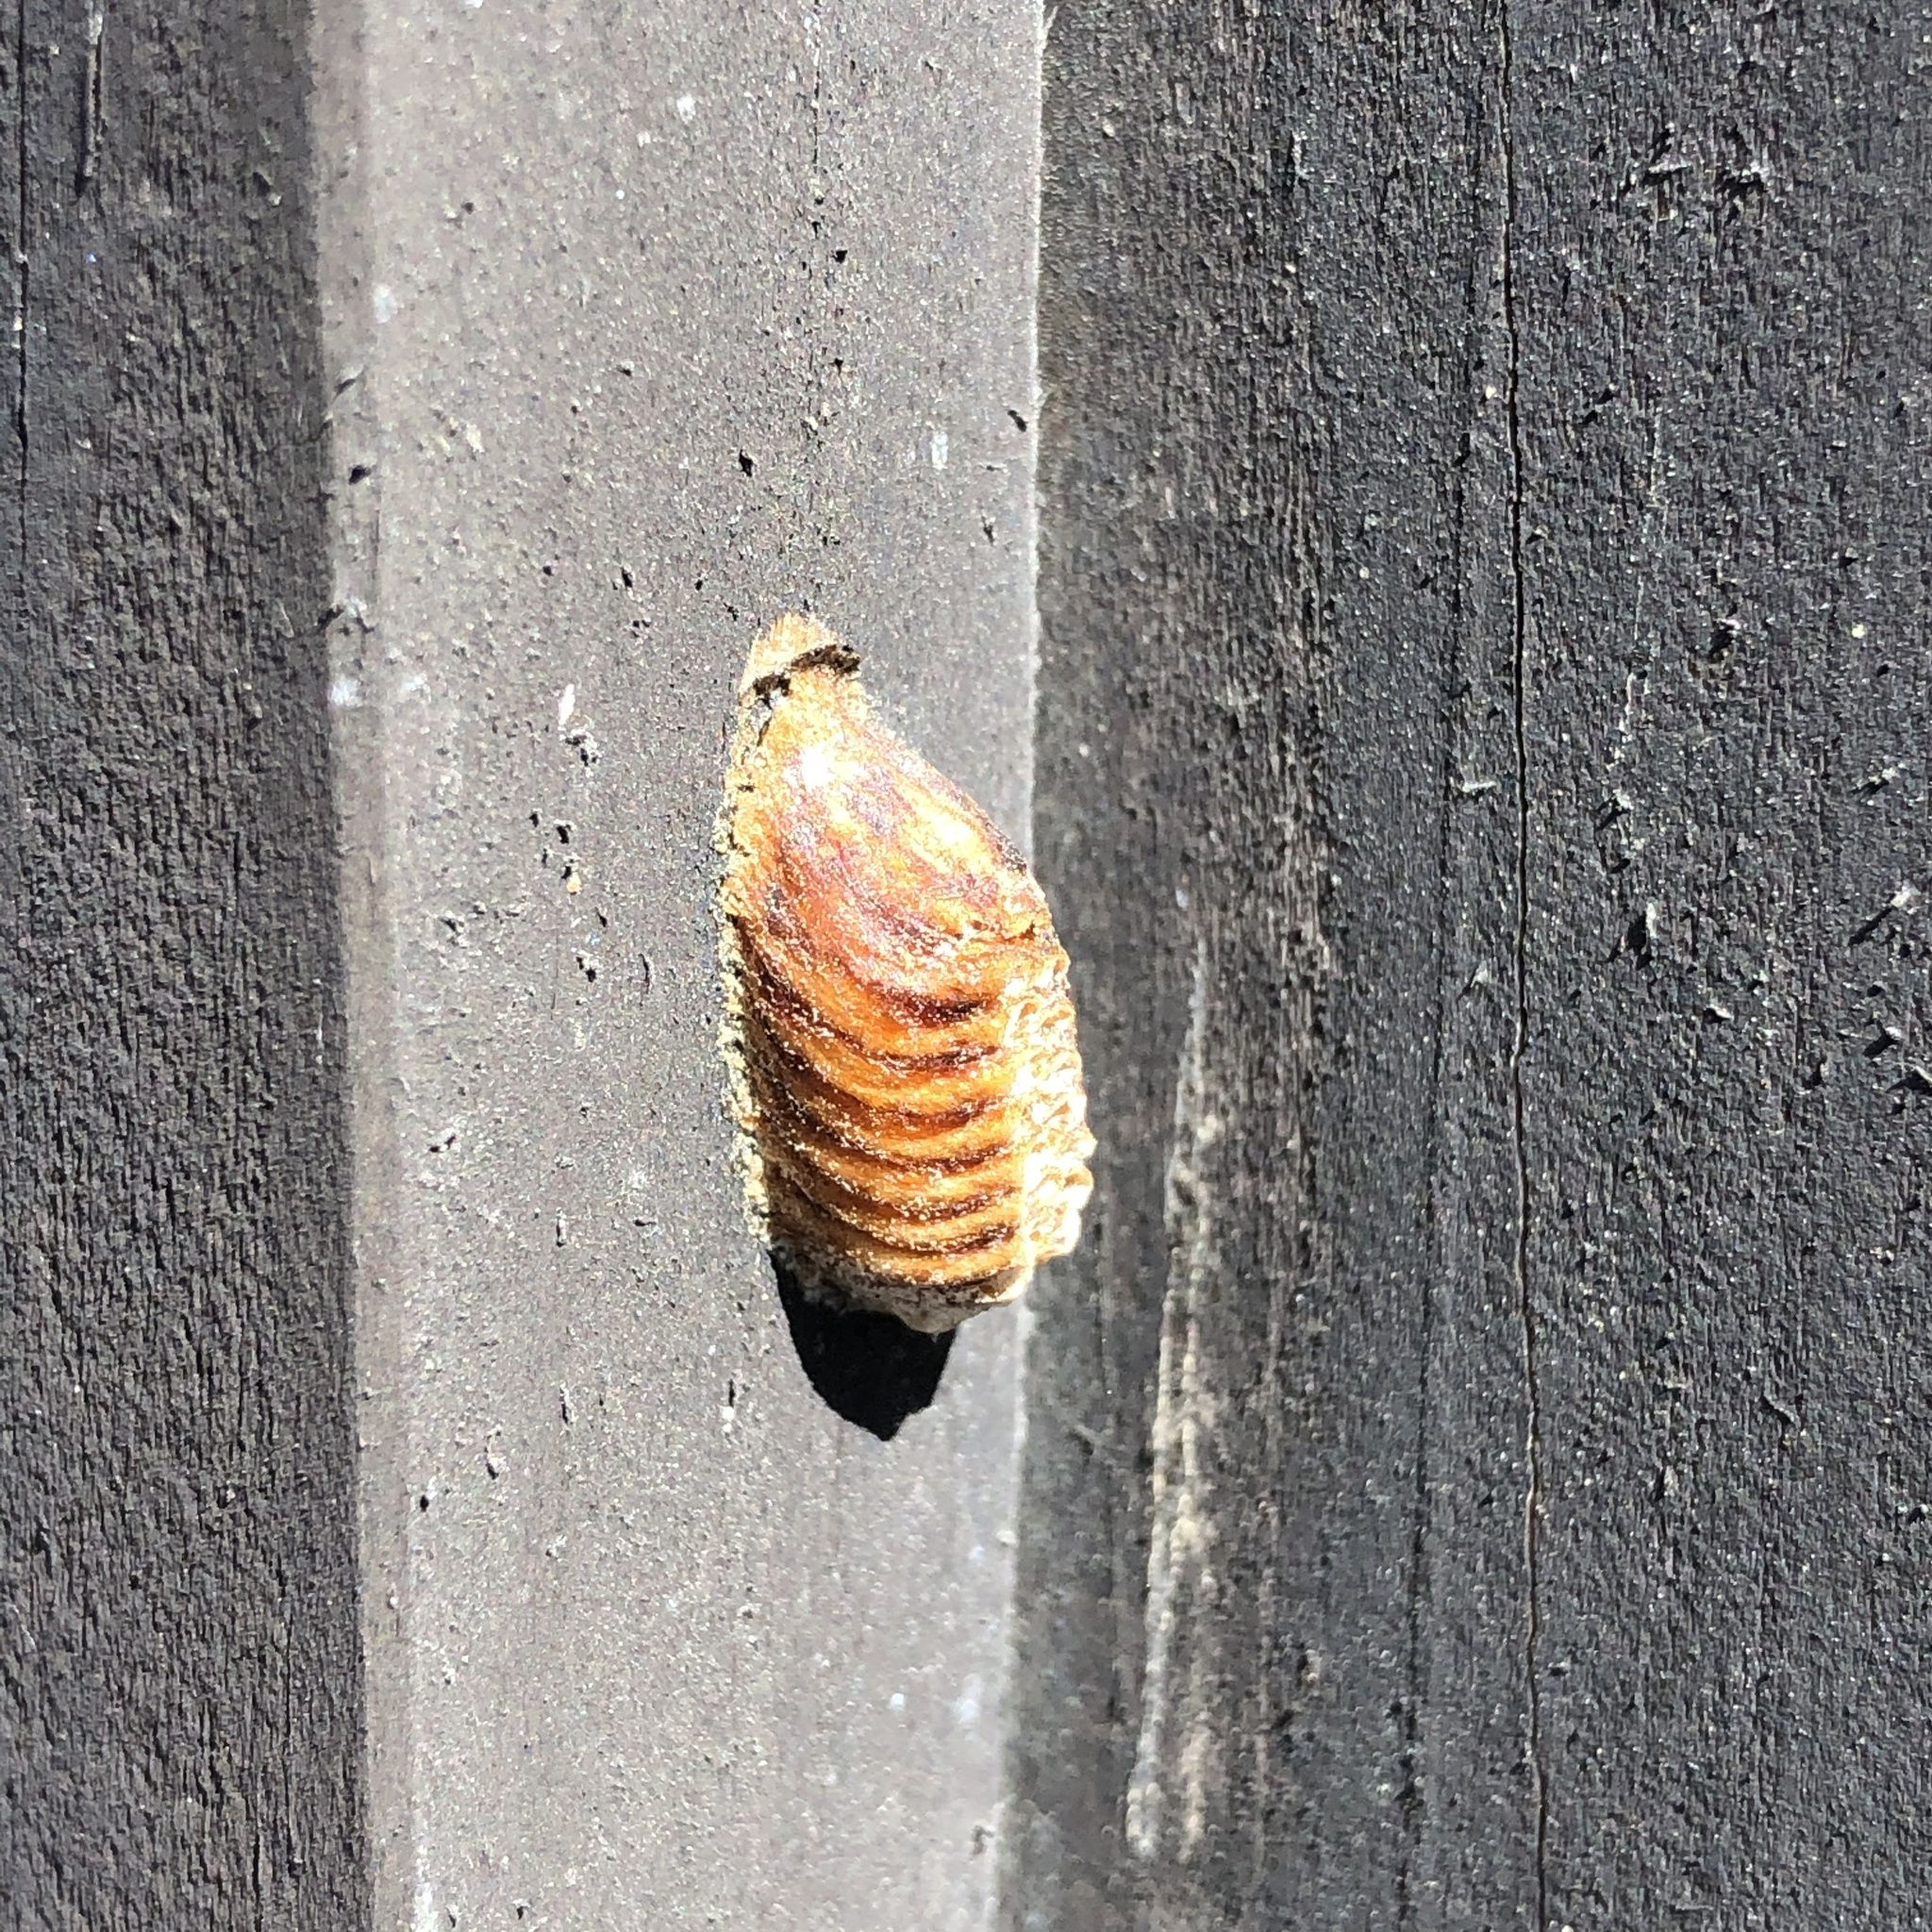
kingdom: Animalia
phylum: Arthropoda
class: Insecta
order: Mantodea
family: Mantidae
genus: Orthodera
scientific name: Orthodera novaezealandiae
